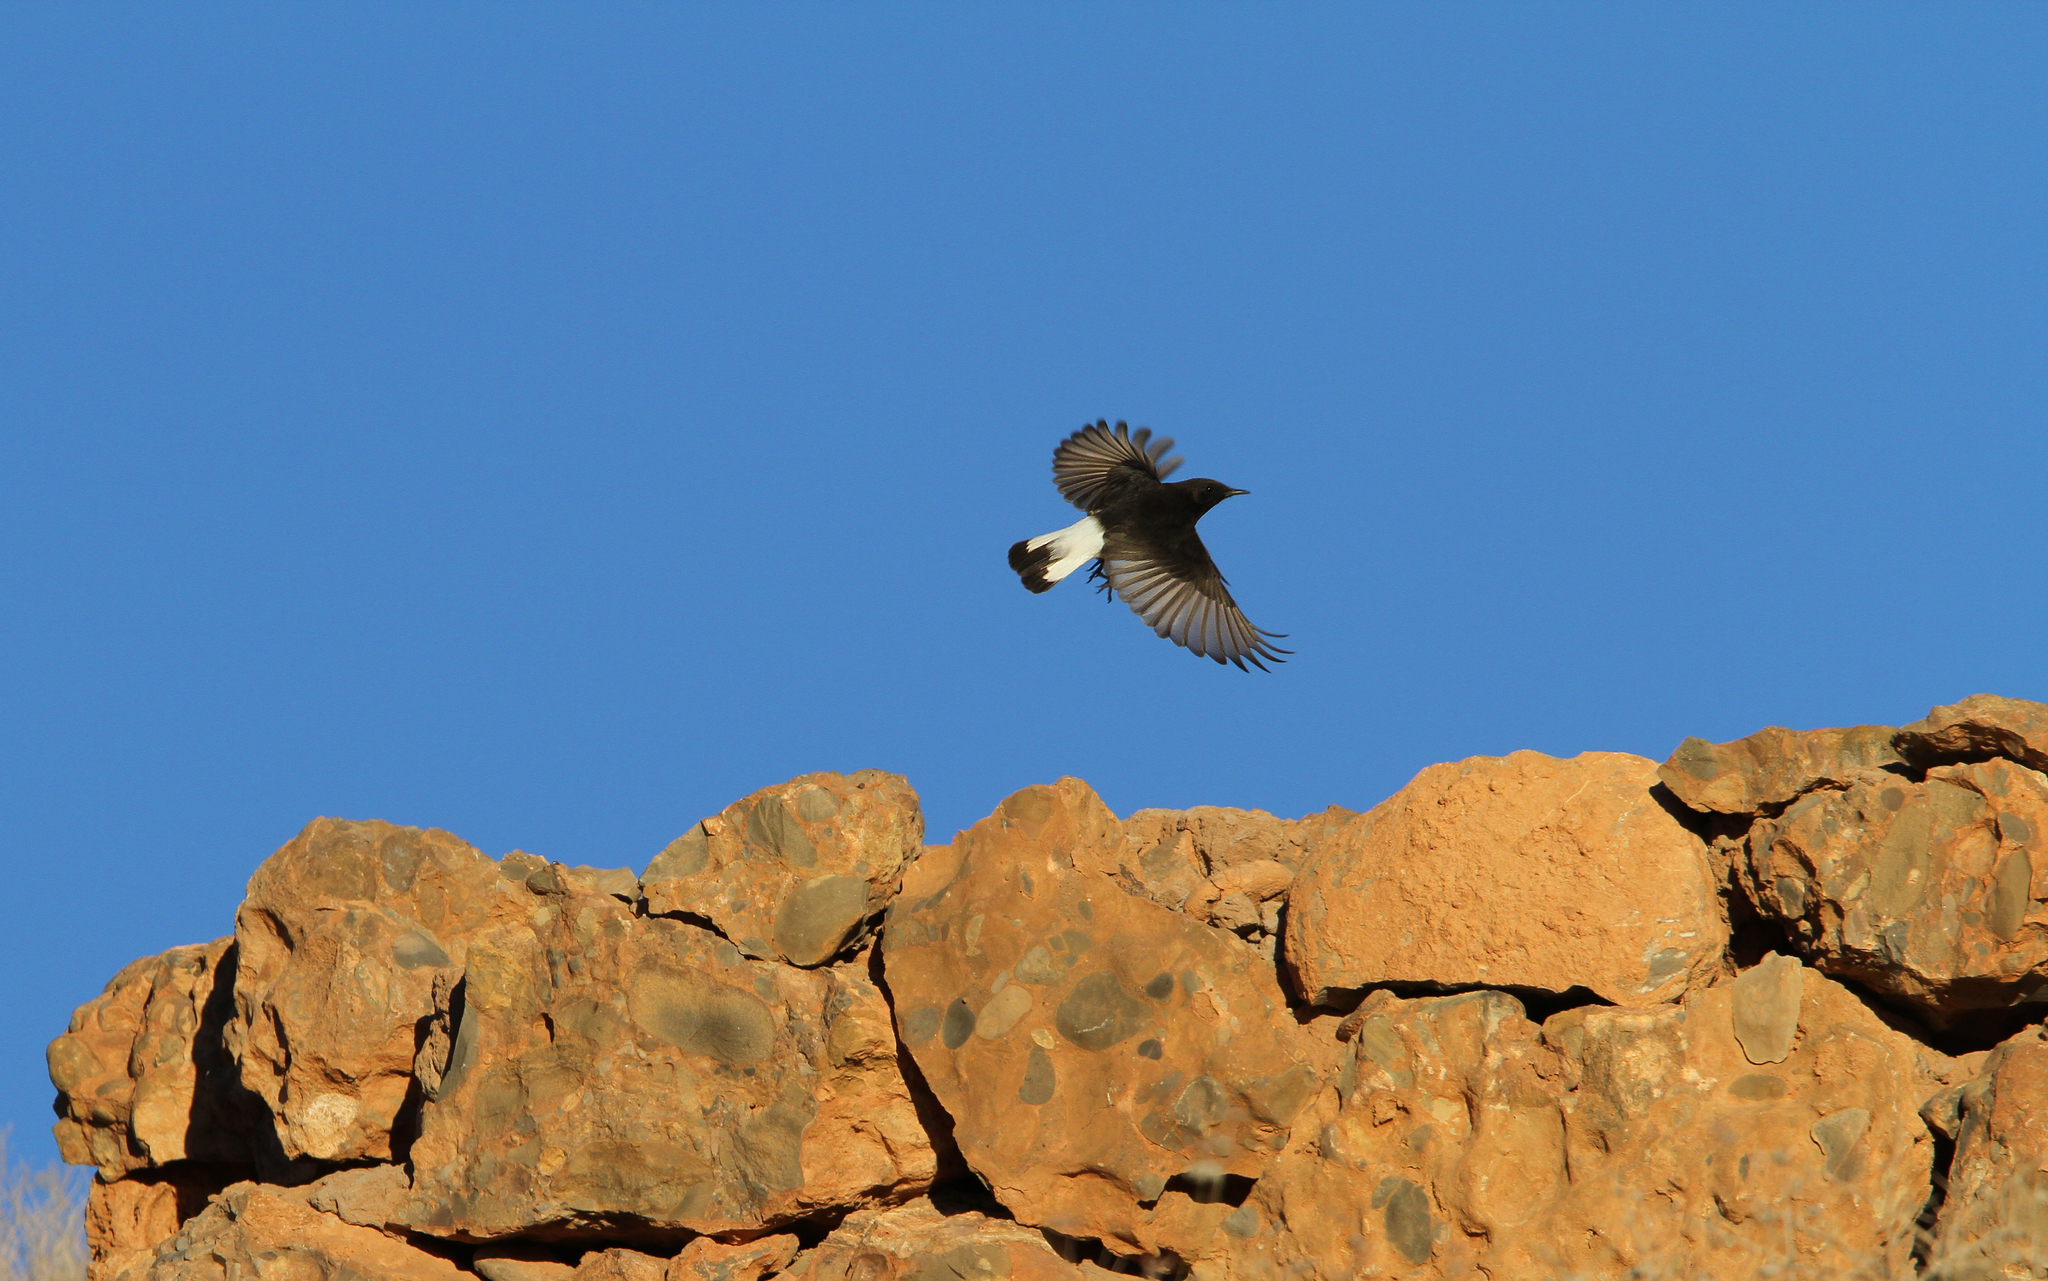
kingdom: Animalia
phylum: Chordata
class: Aves
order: Passeriformes
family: Muscicapidae
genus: Oenanthe
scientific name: Oenanthe leucura
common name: Black wheatear
